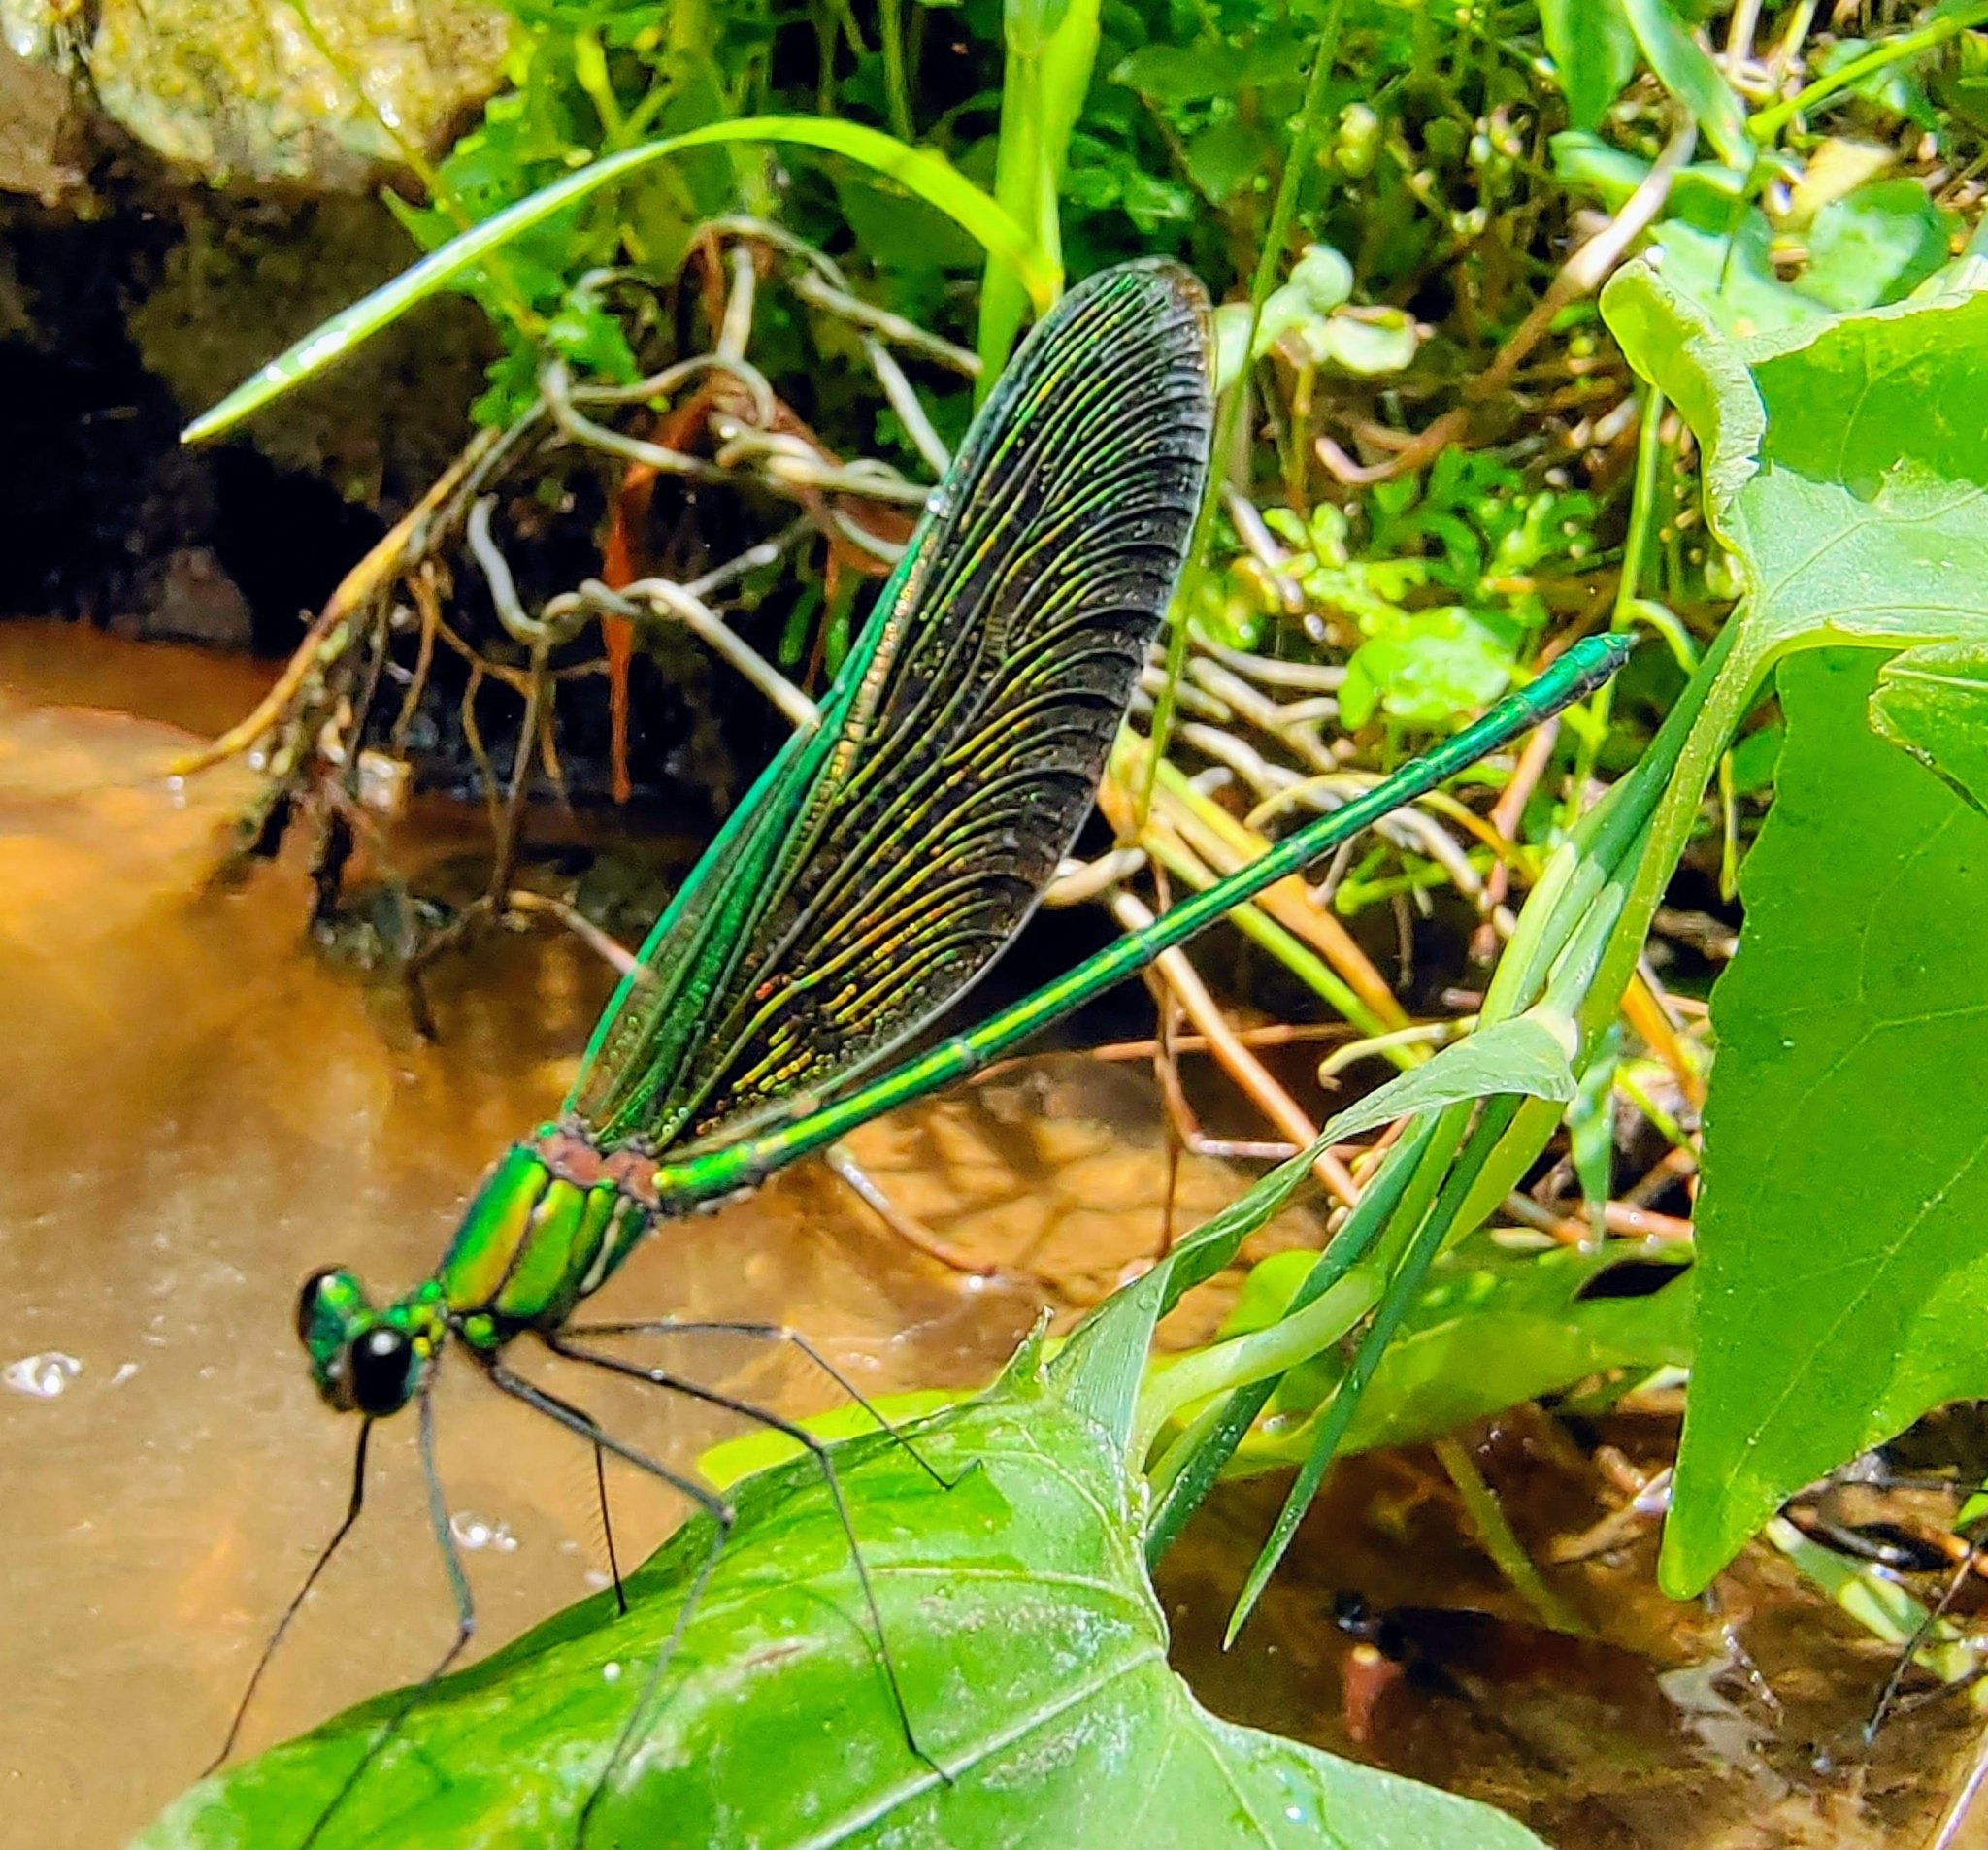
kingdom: Animalia
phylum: Arthropoda
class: Insecta
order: Odonata
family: Calopterygidae
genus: Neurobasis
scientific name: Neurobasis chinensis
